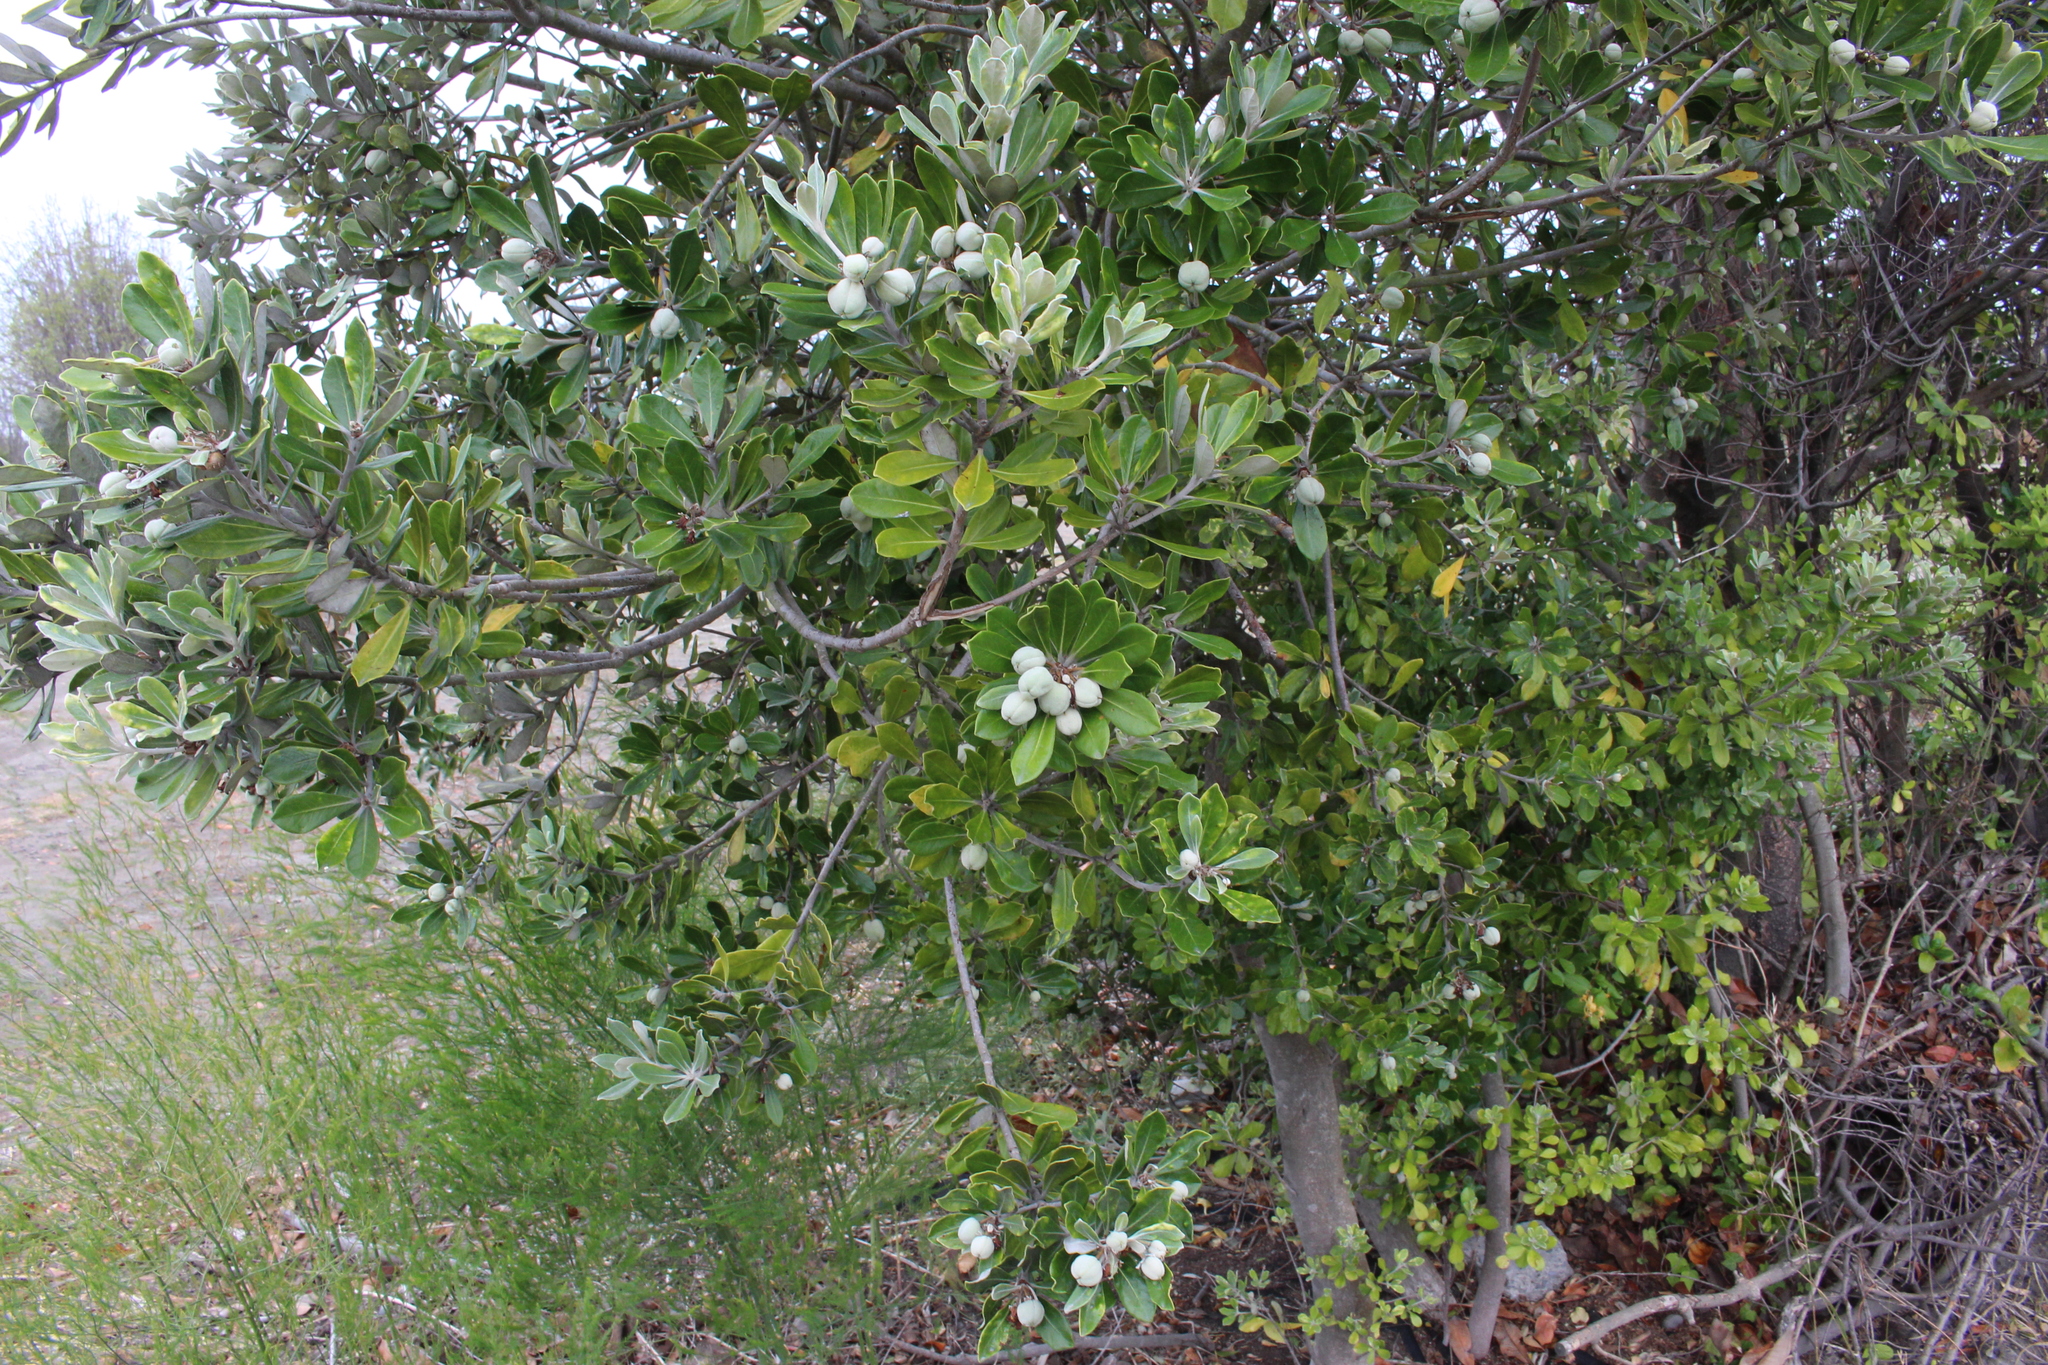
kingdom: Plantae
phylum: Tracheophyta
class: Magnoliopsida
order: Apiales
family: Pittosporaceae
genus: Pittosporum
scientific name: Pittosporum crassifolium
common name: Karo
